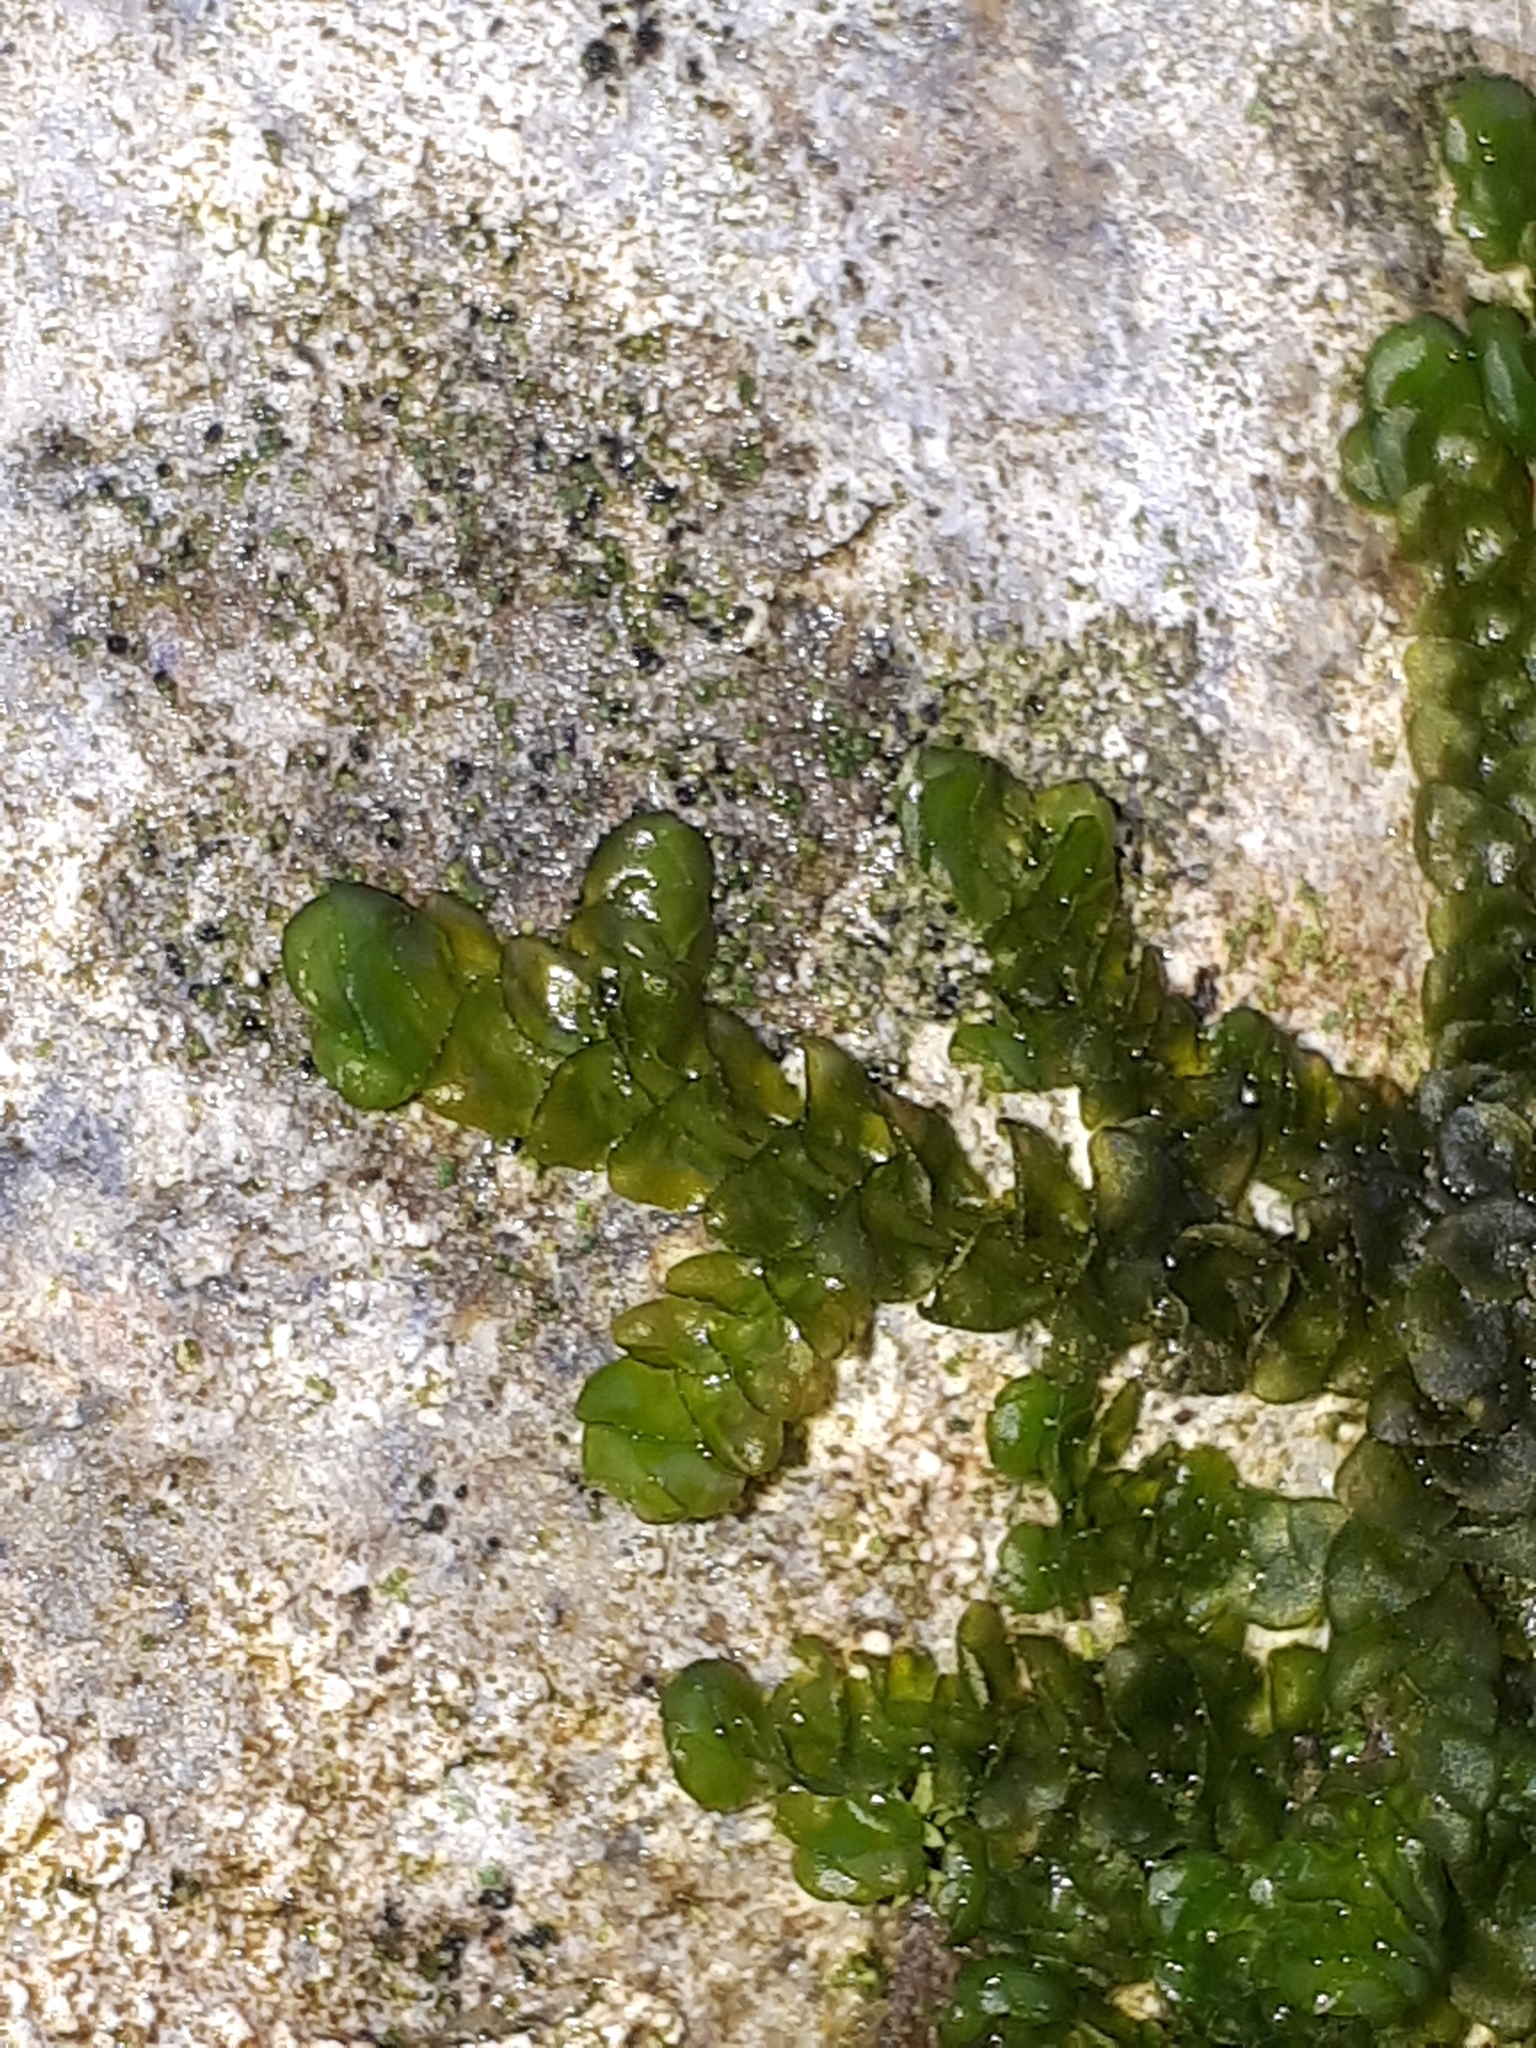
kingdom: Plantae
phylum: Marchantiophyta
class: Jungermanniopsida
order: Porellales
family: Porellaceae
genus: Porella
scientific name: Porella platyphylla
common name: Wall scalewort
